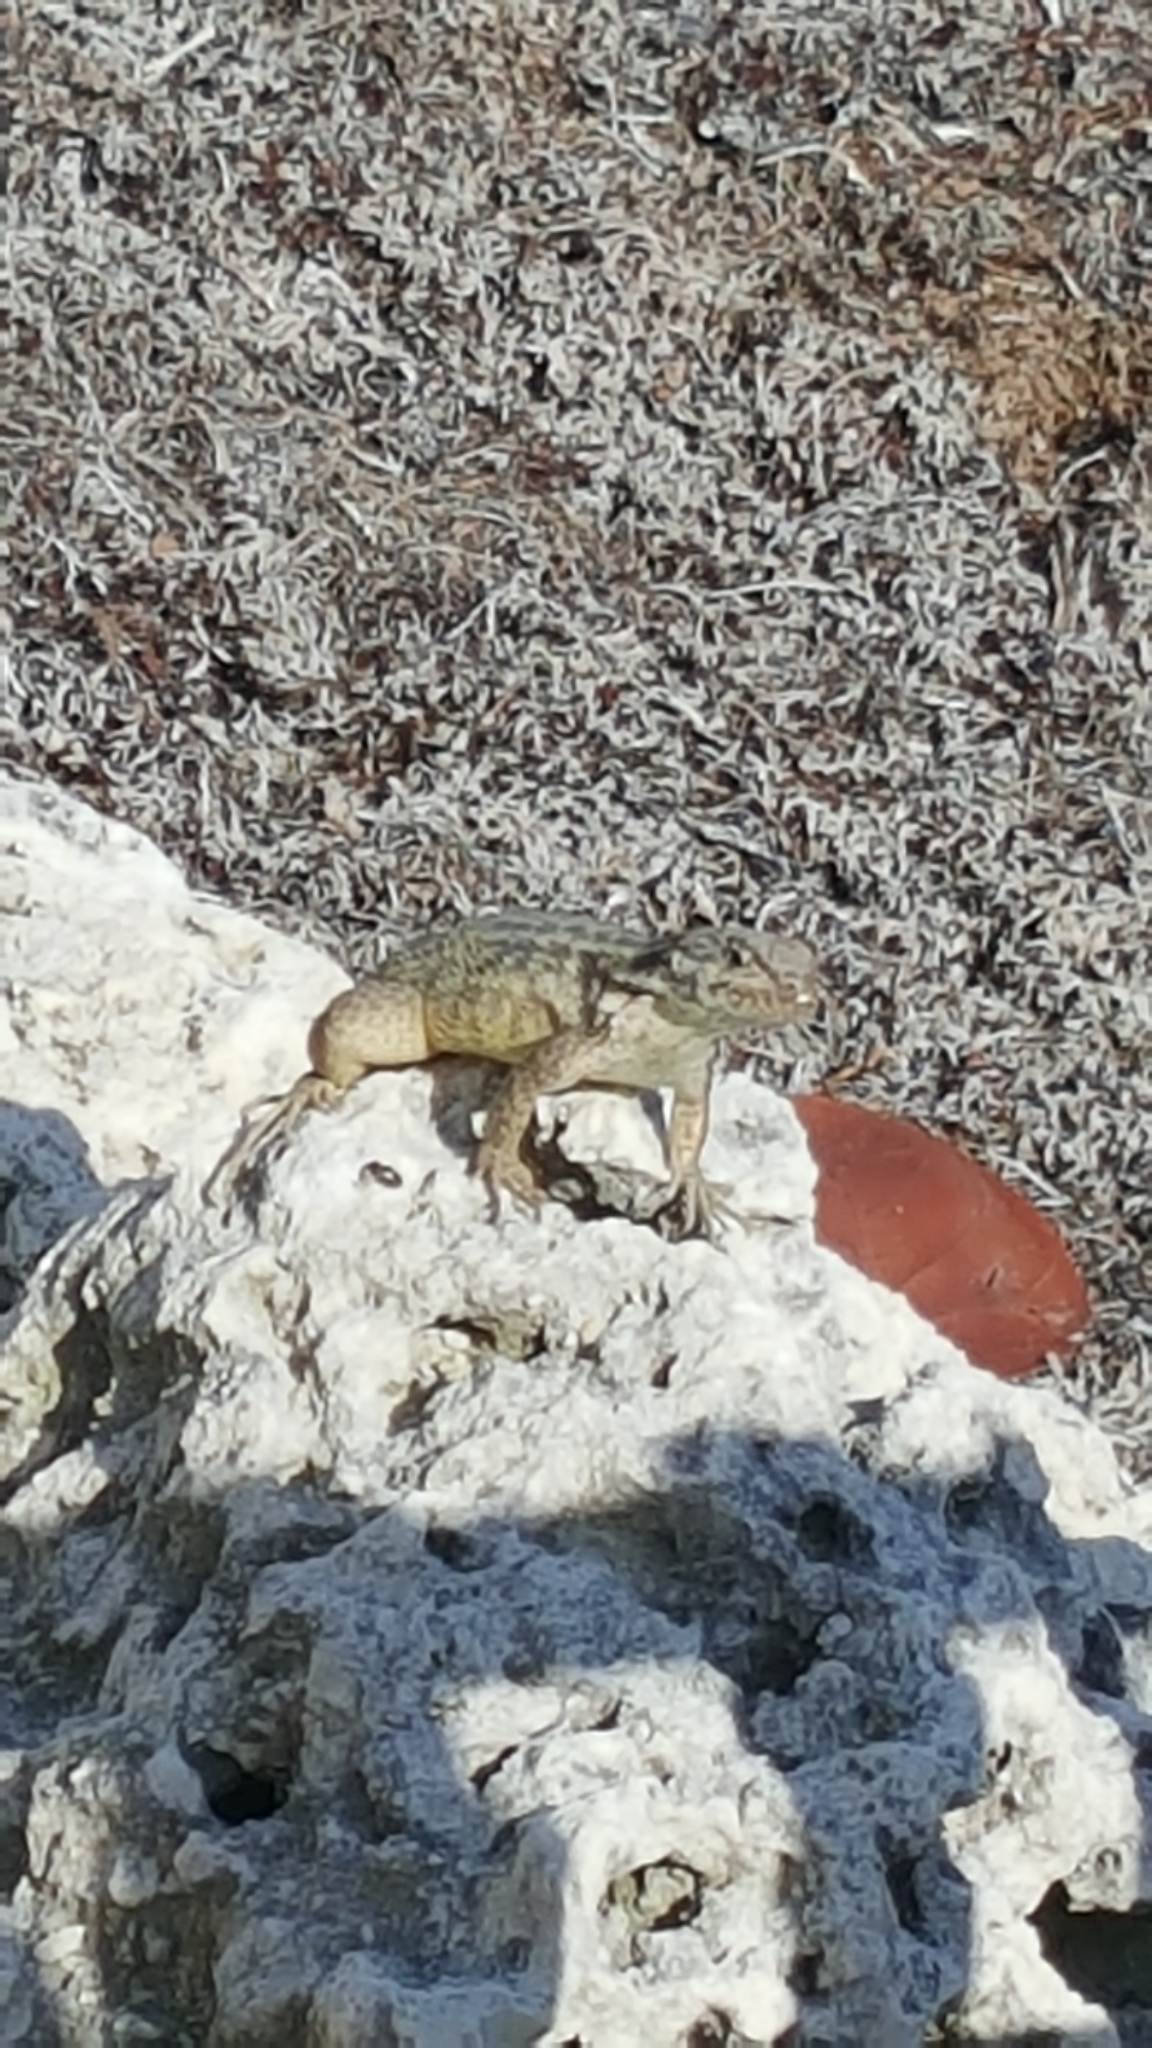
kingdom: Animalia
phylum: Chordata
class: Squamata
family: Leiocephalidae
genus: Leiocephalus
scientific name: Leiocephalus carinatus
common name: Northern curly-tailed lizard
